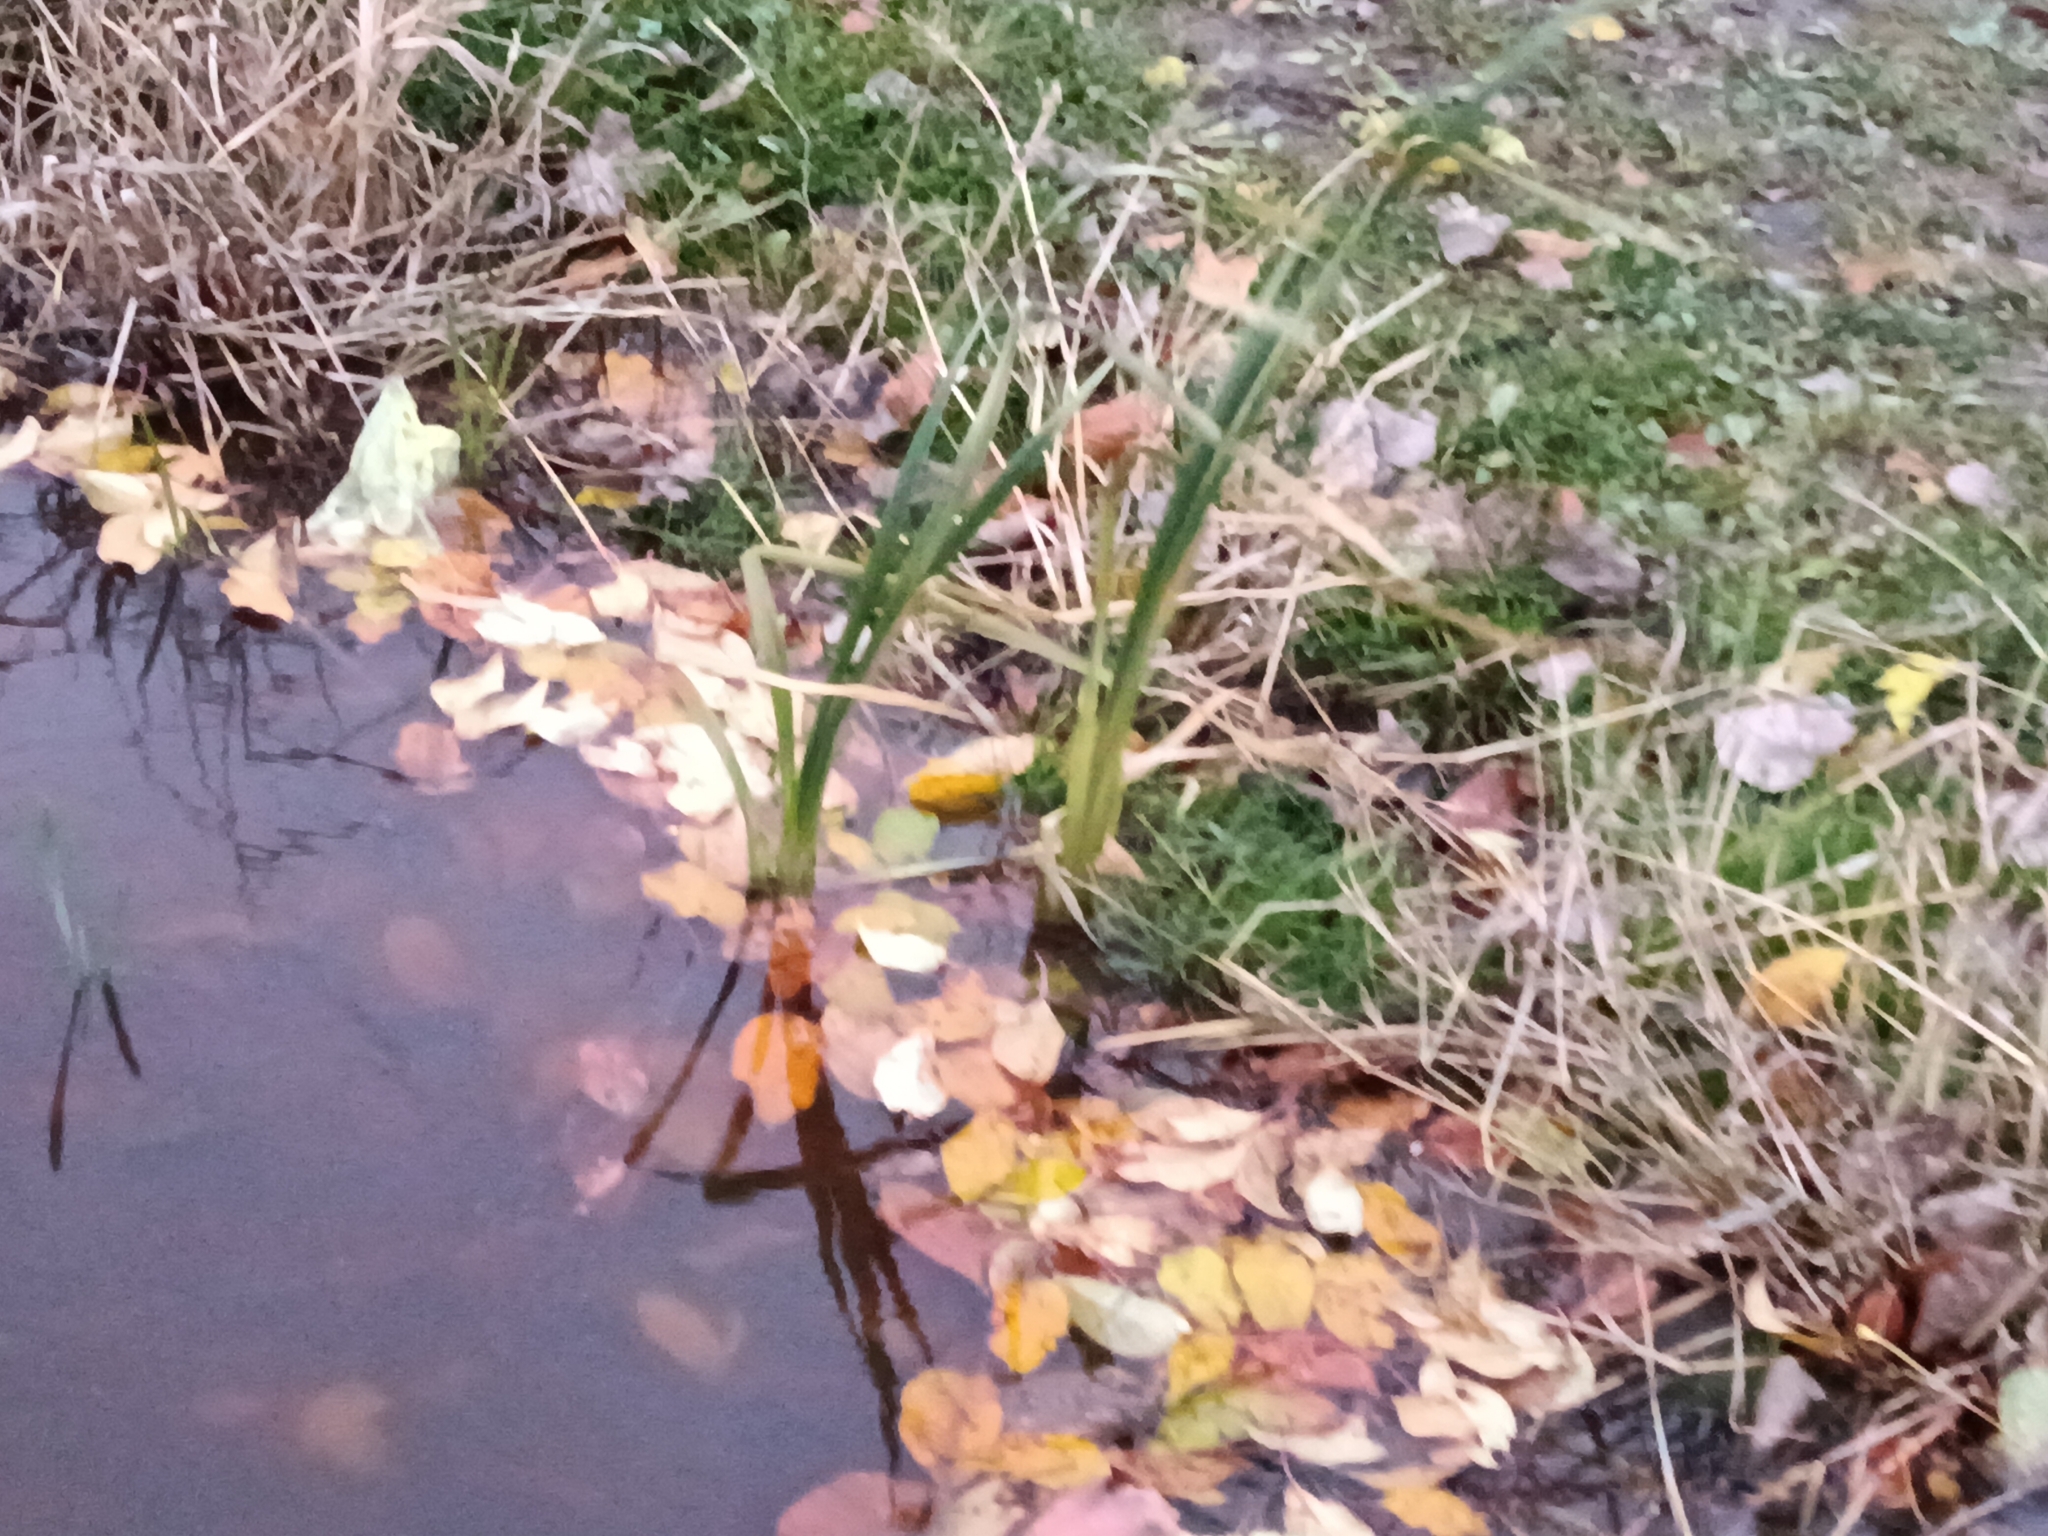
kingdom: Plantae
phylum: Tracheophyta
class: Liliopsida
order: Poales
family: Typhaceae
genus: Typha
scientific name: Typha latifolia
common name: Broadleaf cattail
